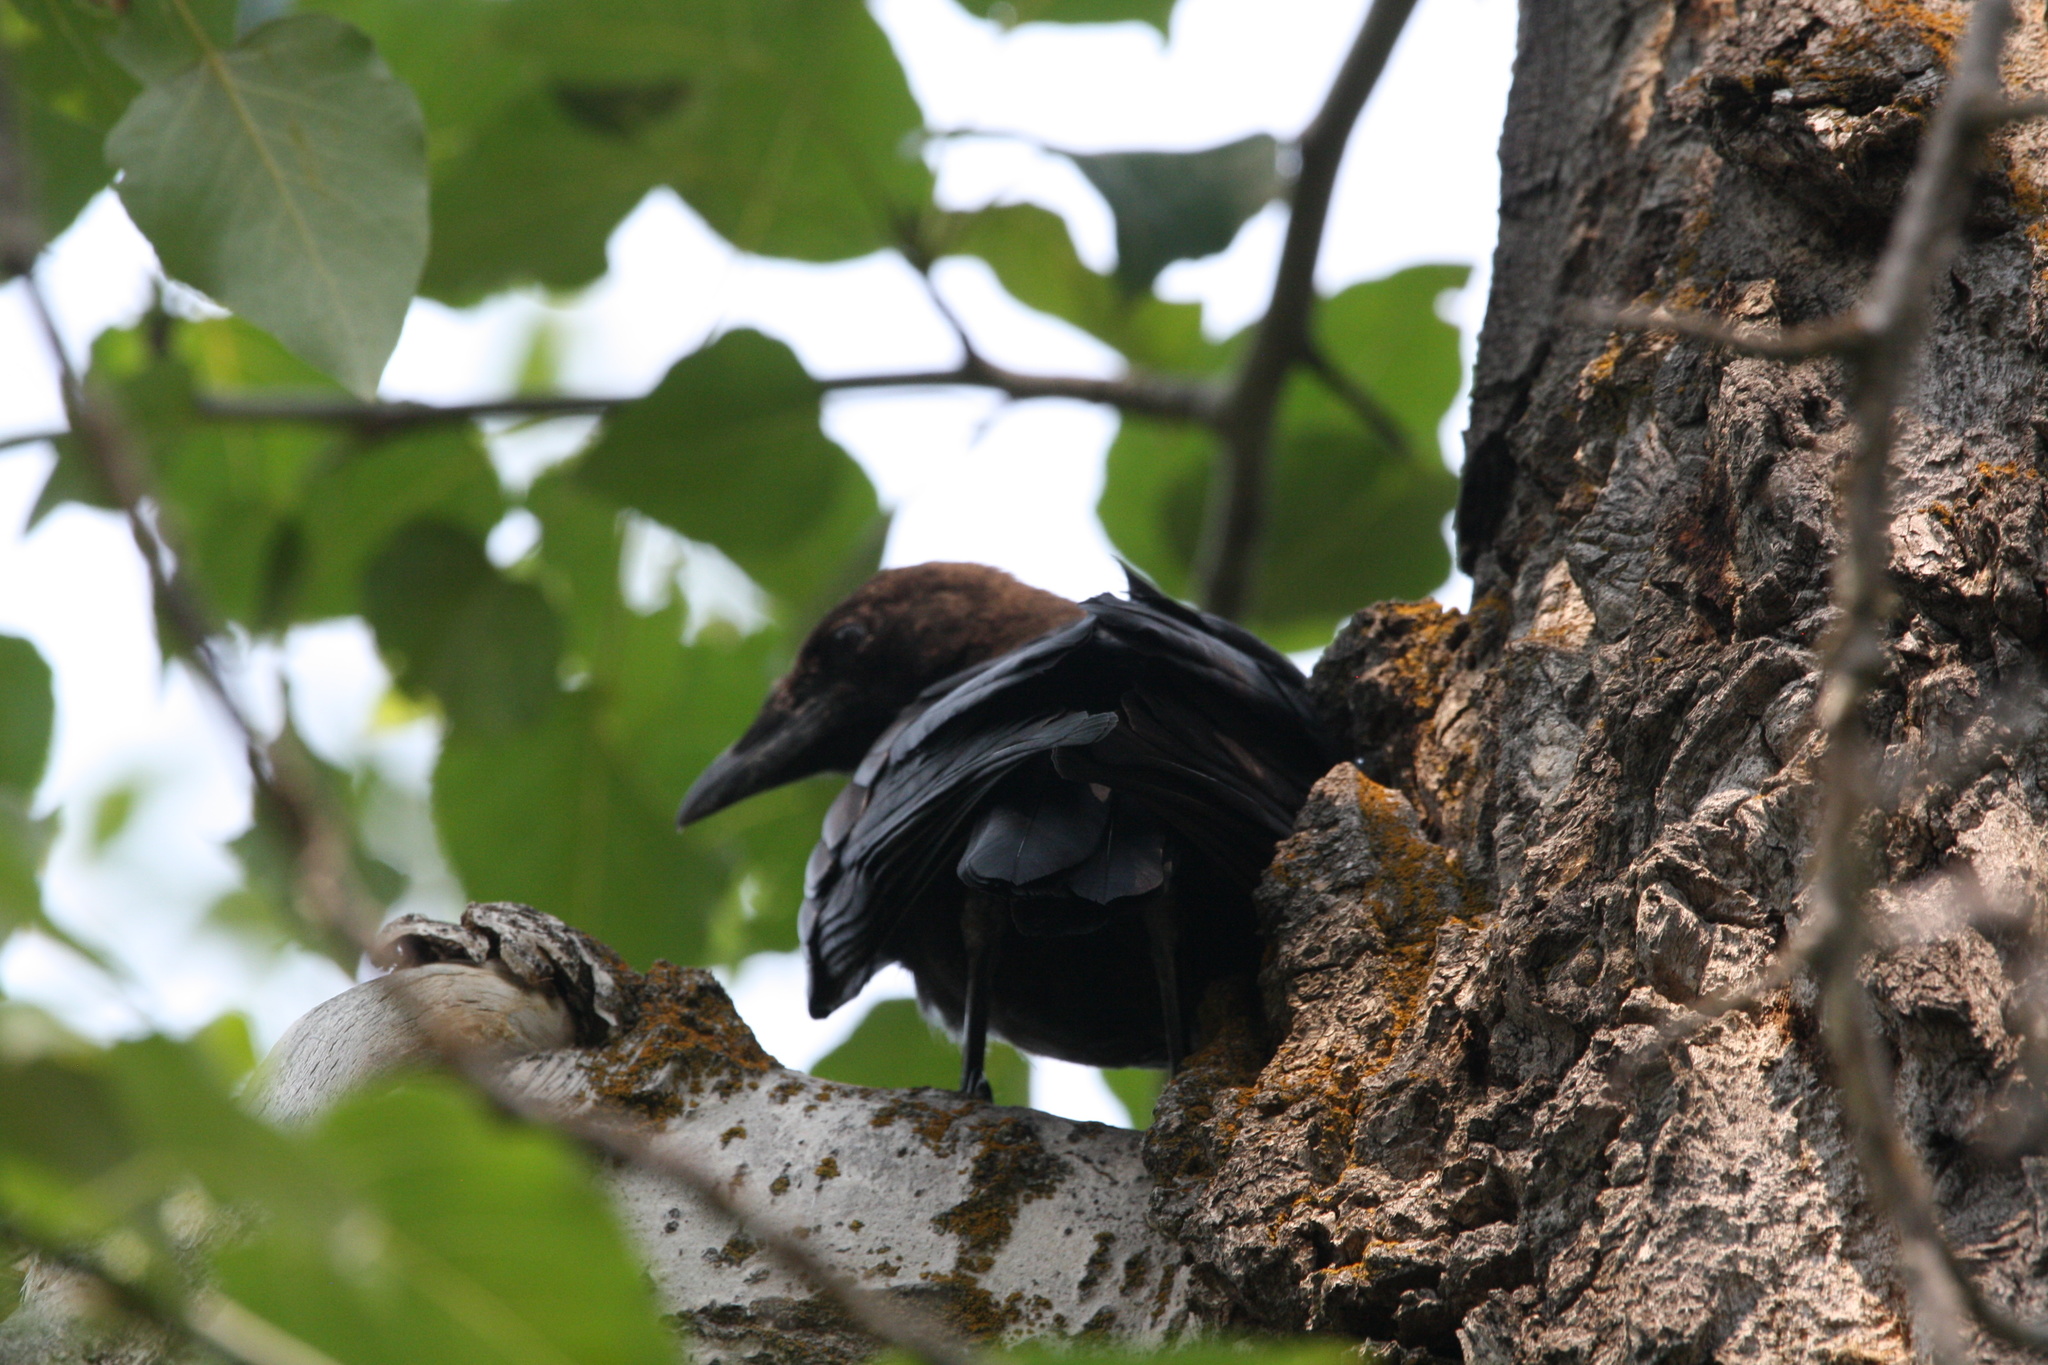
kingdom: Animalia
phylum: Chordata
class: Aves
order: Passeriformes
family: Corvidae
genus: Corvus
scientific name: Corvus brachyrhynchos
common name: American crow
